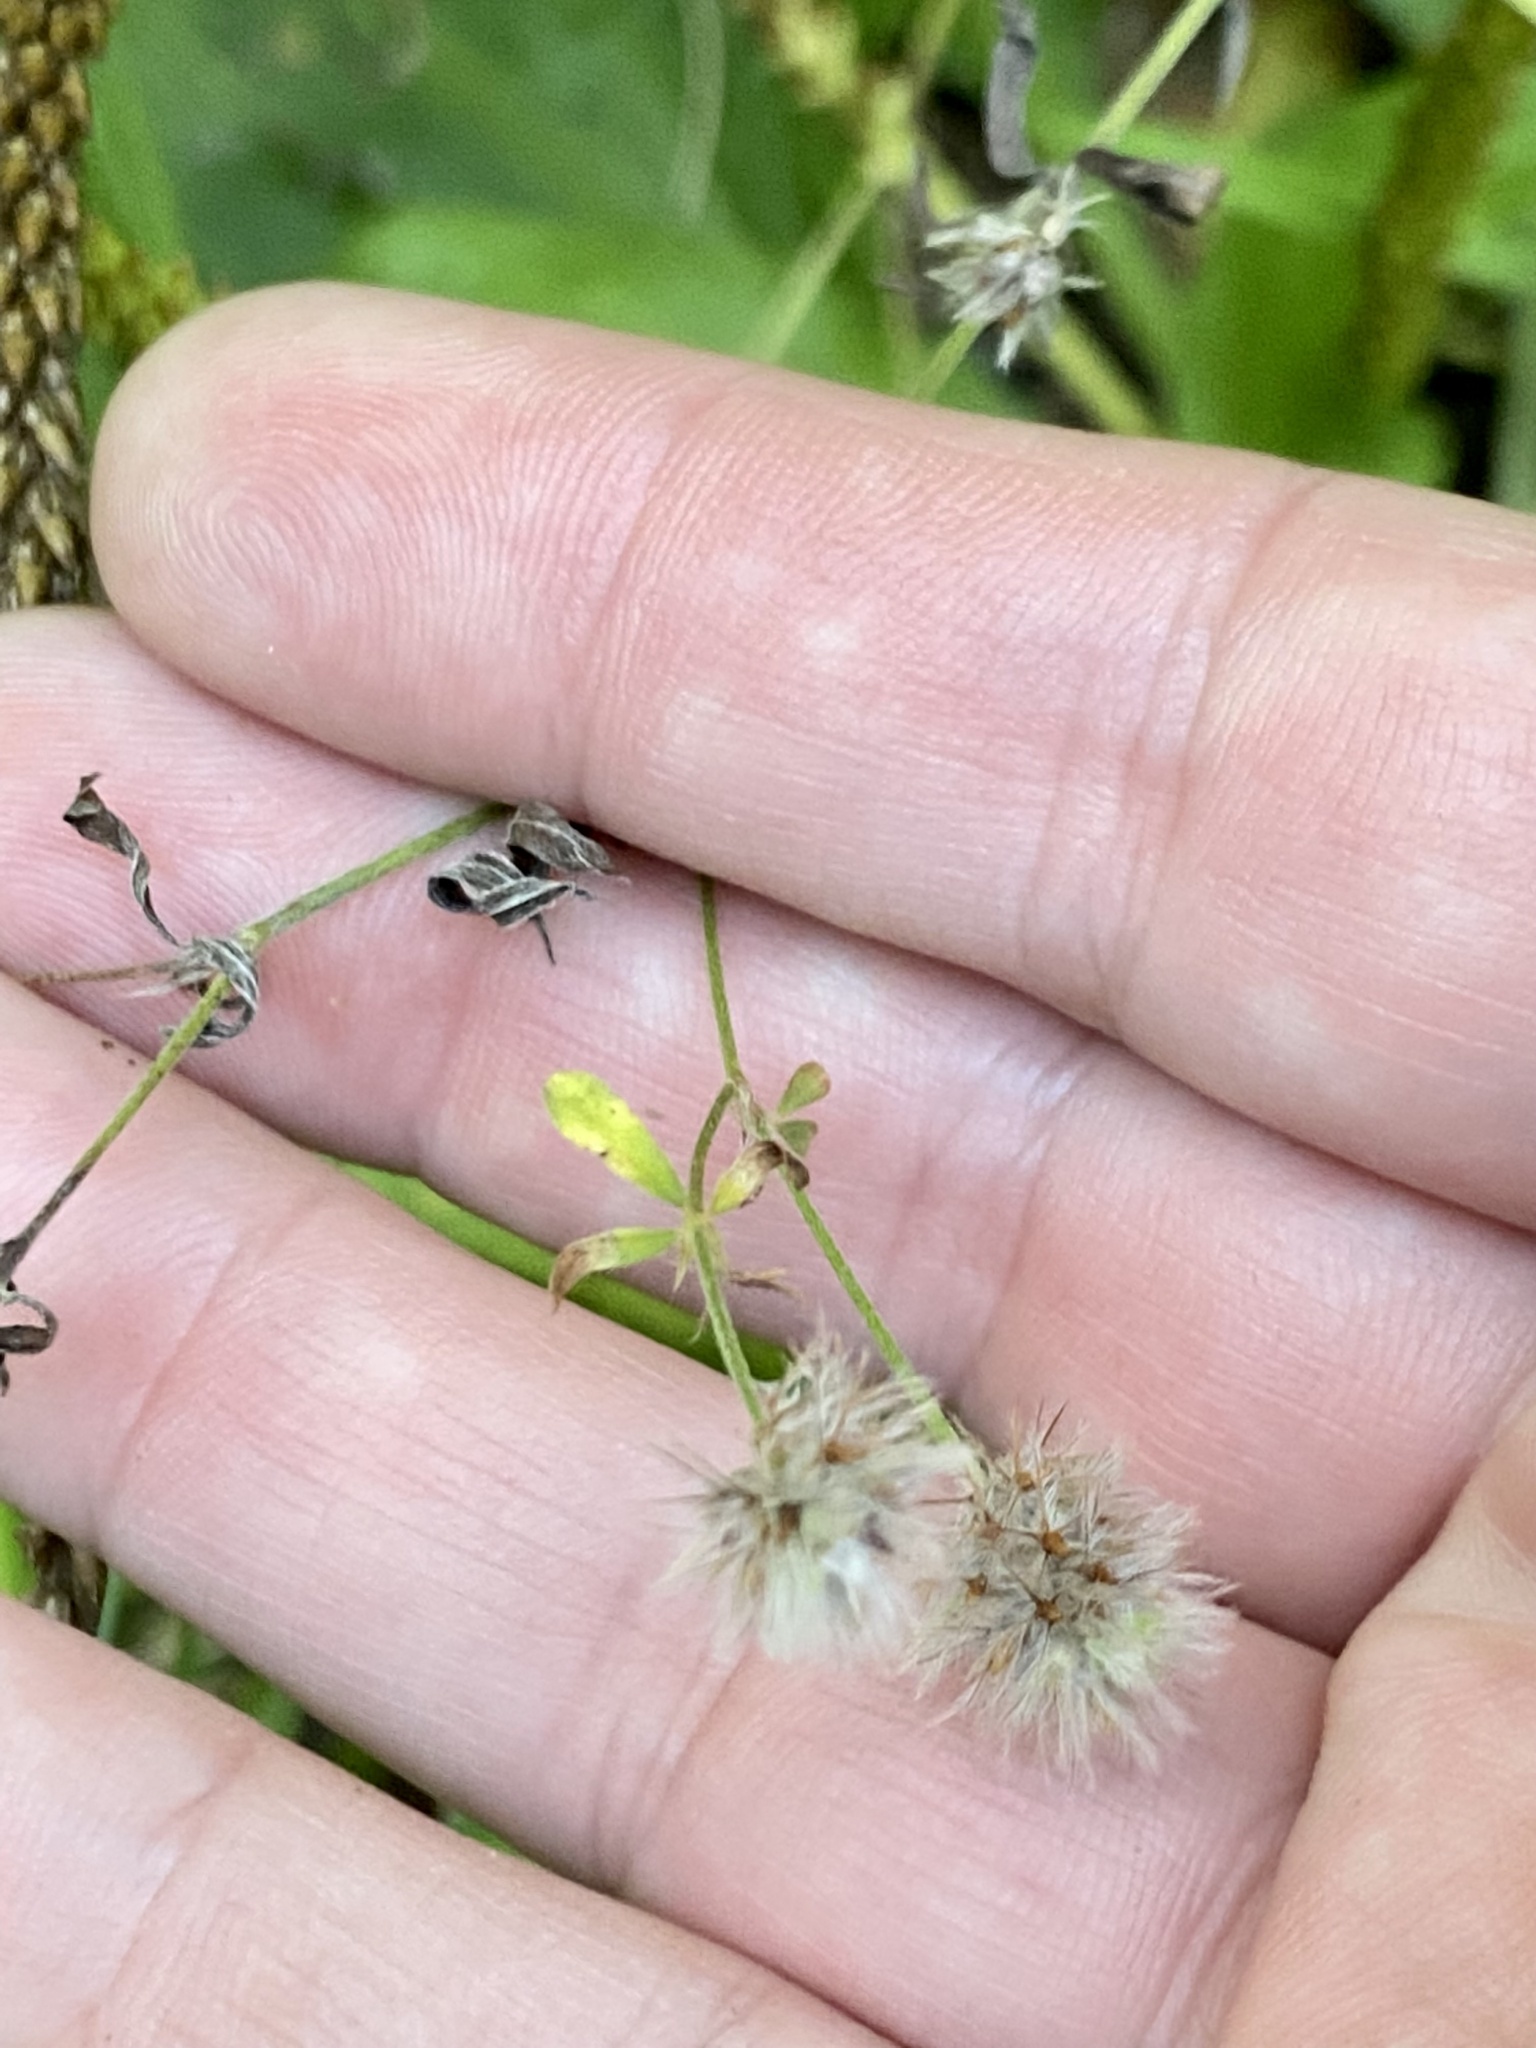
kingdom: Plantae
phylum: Tracheophyta
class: Magnoliopsida
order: Fabales
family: Fabaceae
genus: Trifolium
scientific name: Trifolium arvense
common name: Hare's-foot clover
